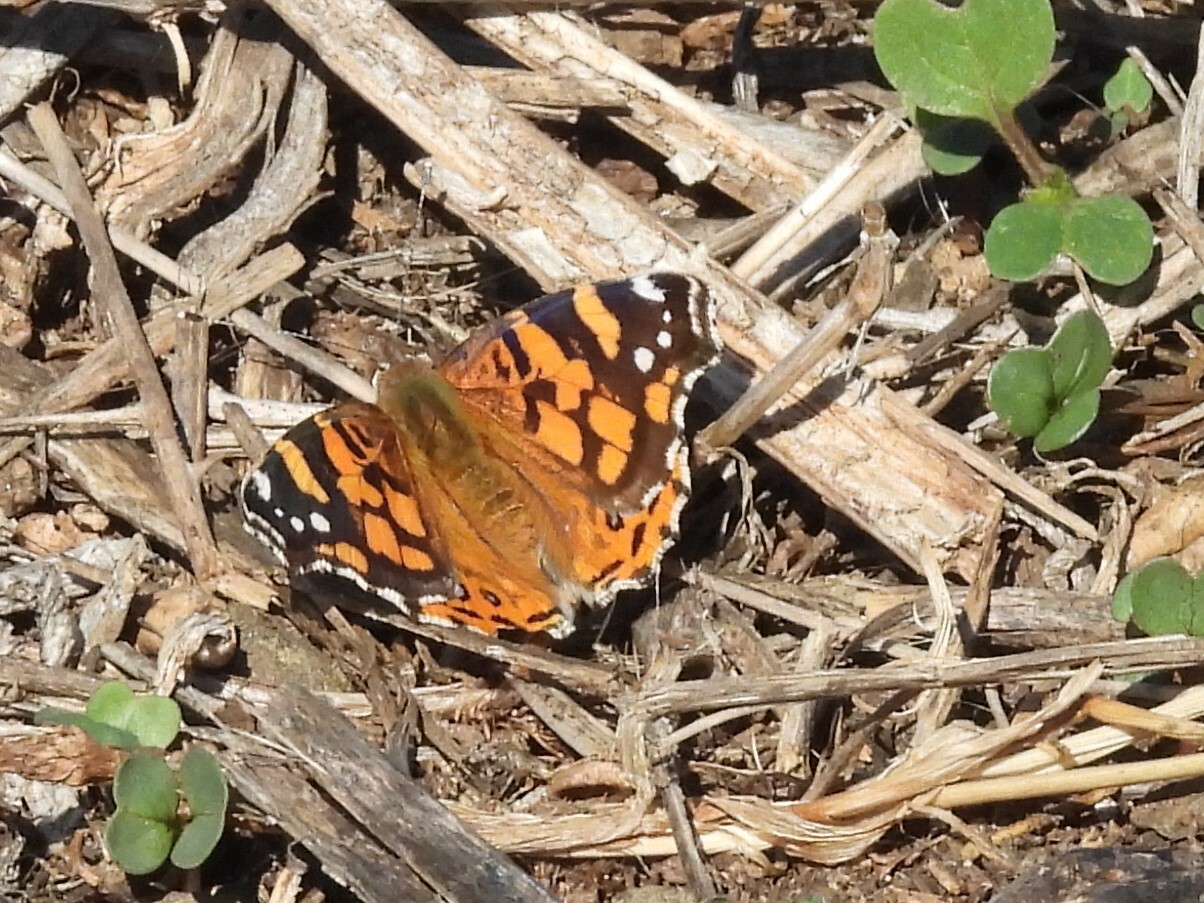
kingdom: Animalia
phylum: Arthropoda
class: Insecta
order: Lepidoptera
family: Nymphalidae
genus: Vanessa
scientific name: Vanessa annabella
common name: West coast lady
